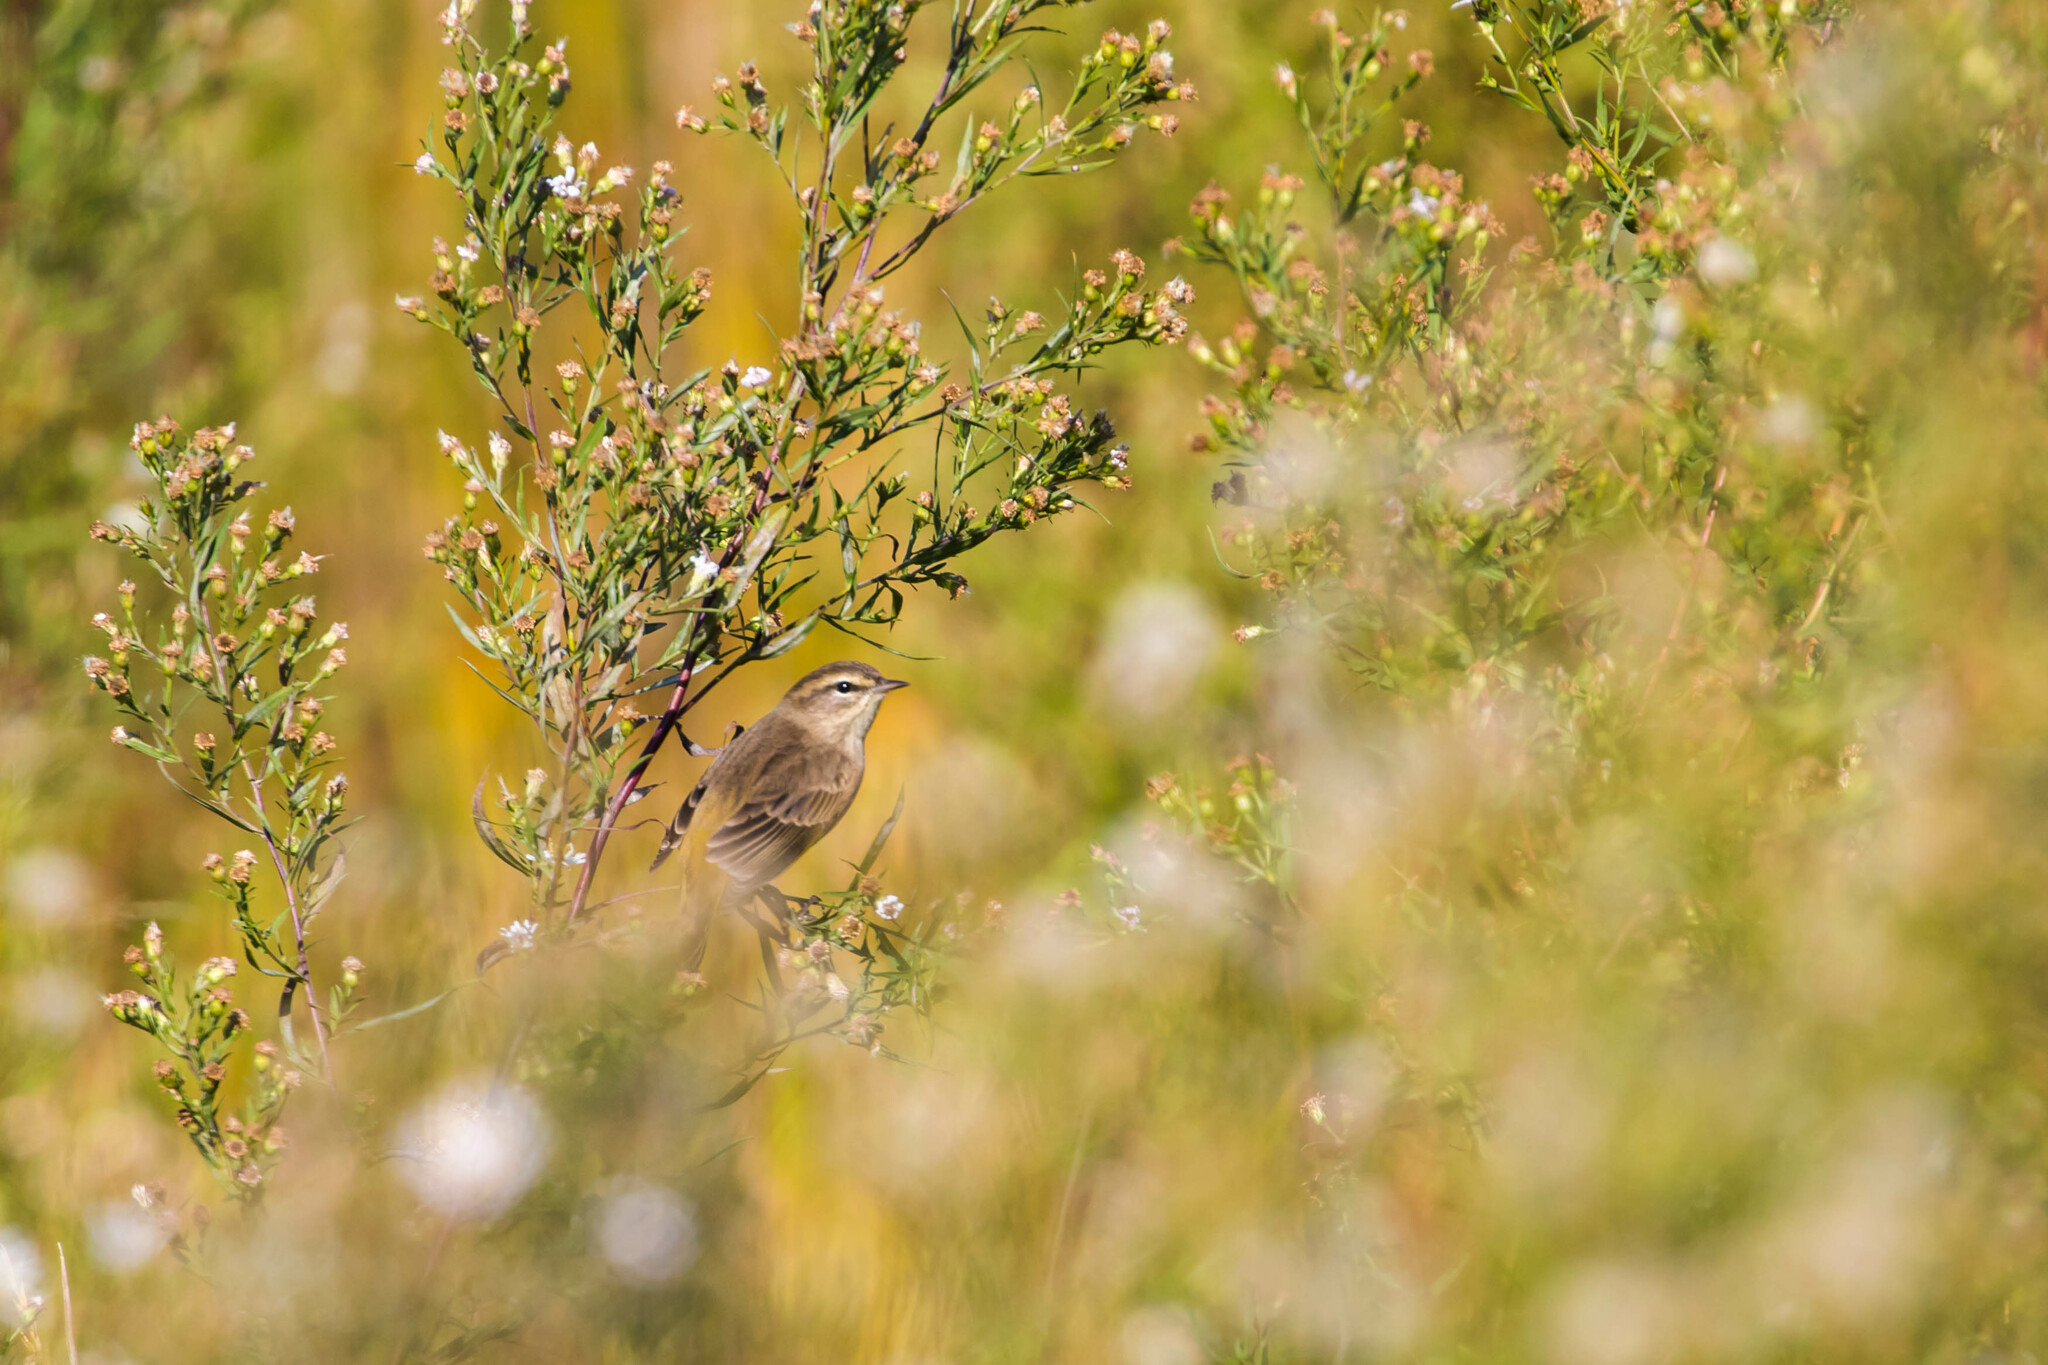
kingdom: Animalia
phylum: Chordata
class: Aves
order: Passeriformes
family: Parulidae
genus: Setophaga
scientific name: Setophaga palmarum
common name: Palm warbler
